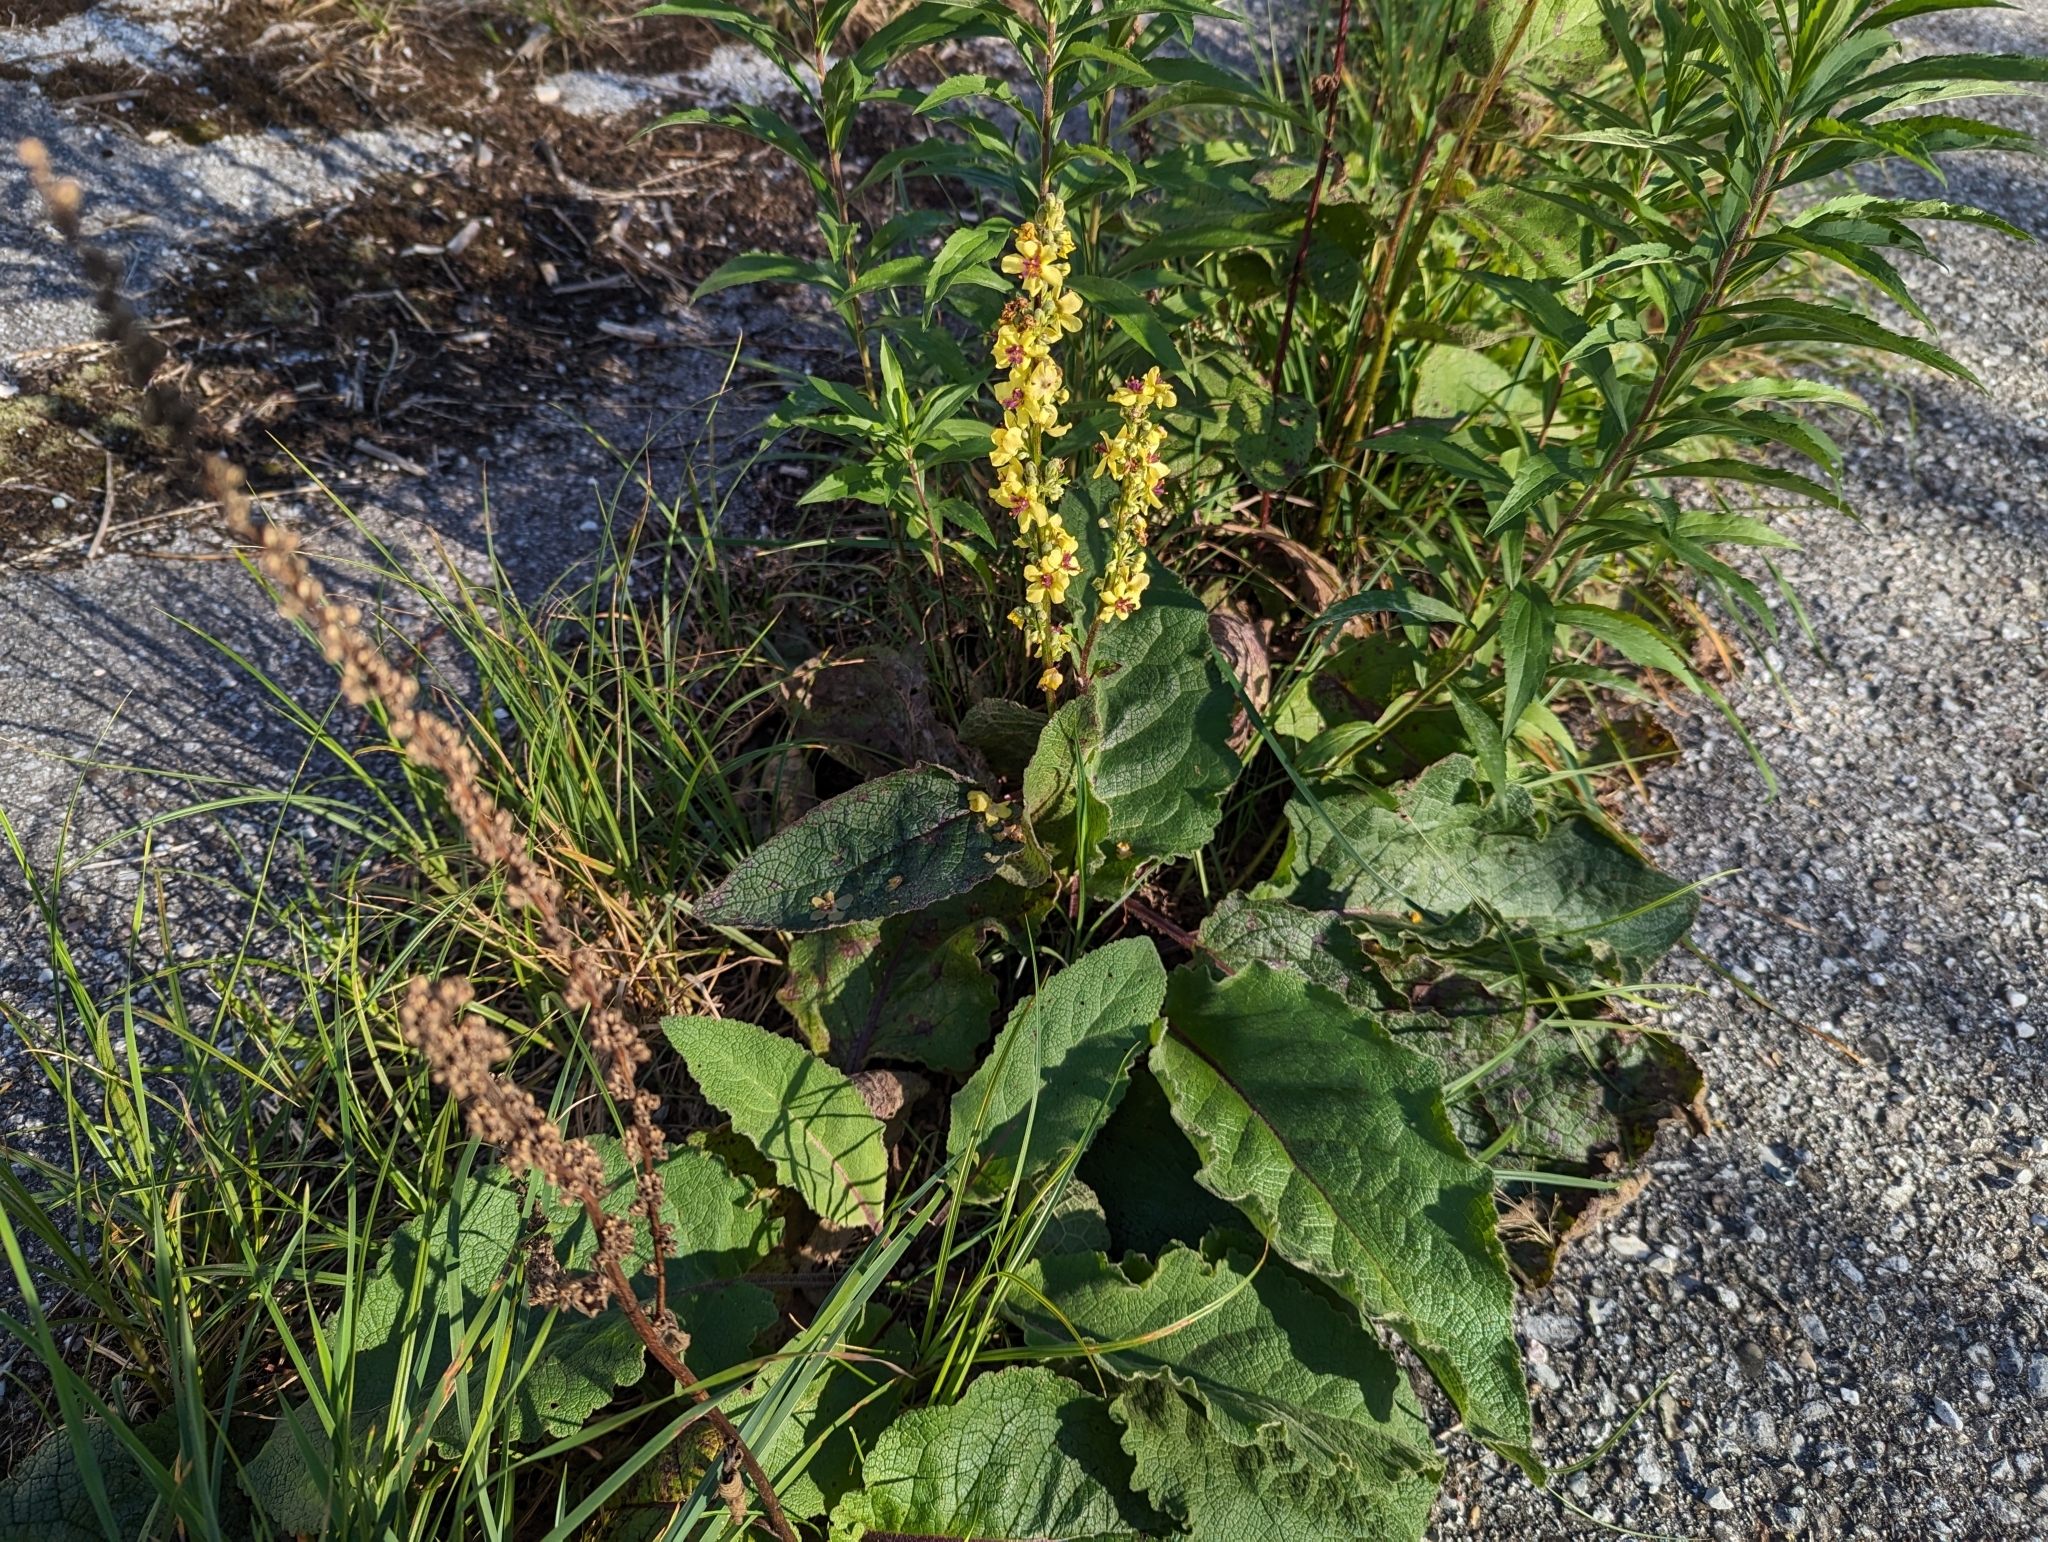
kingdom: Plantae
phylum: Tracheophyta
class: Magnoliopsida
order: Lamiales
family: Scrophulariaceae
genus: Verbascum
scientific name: Verbascum nigrum
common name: Dark mullein
